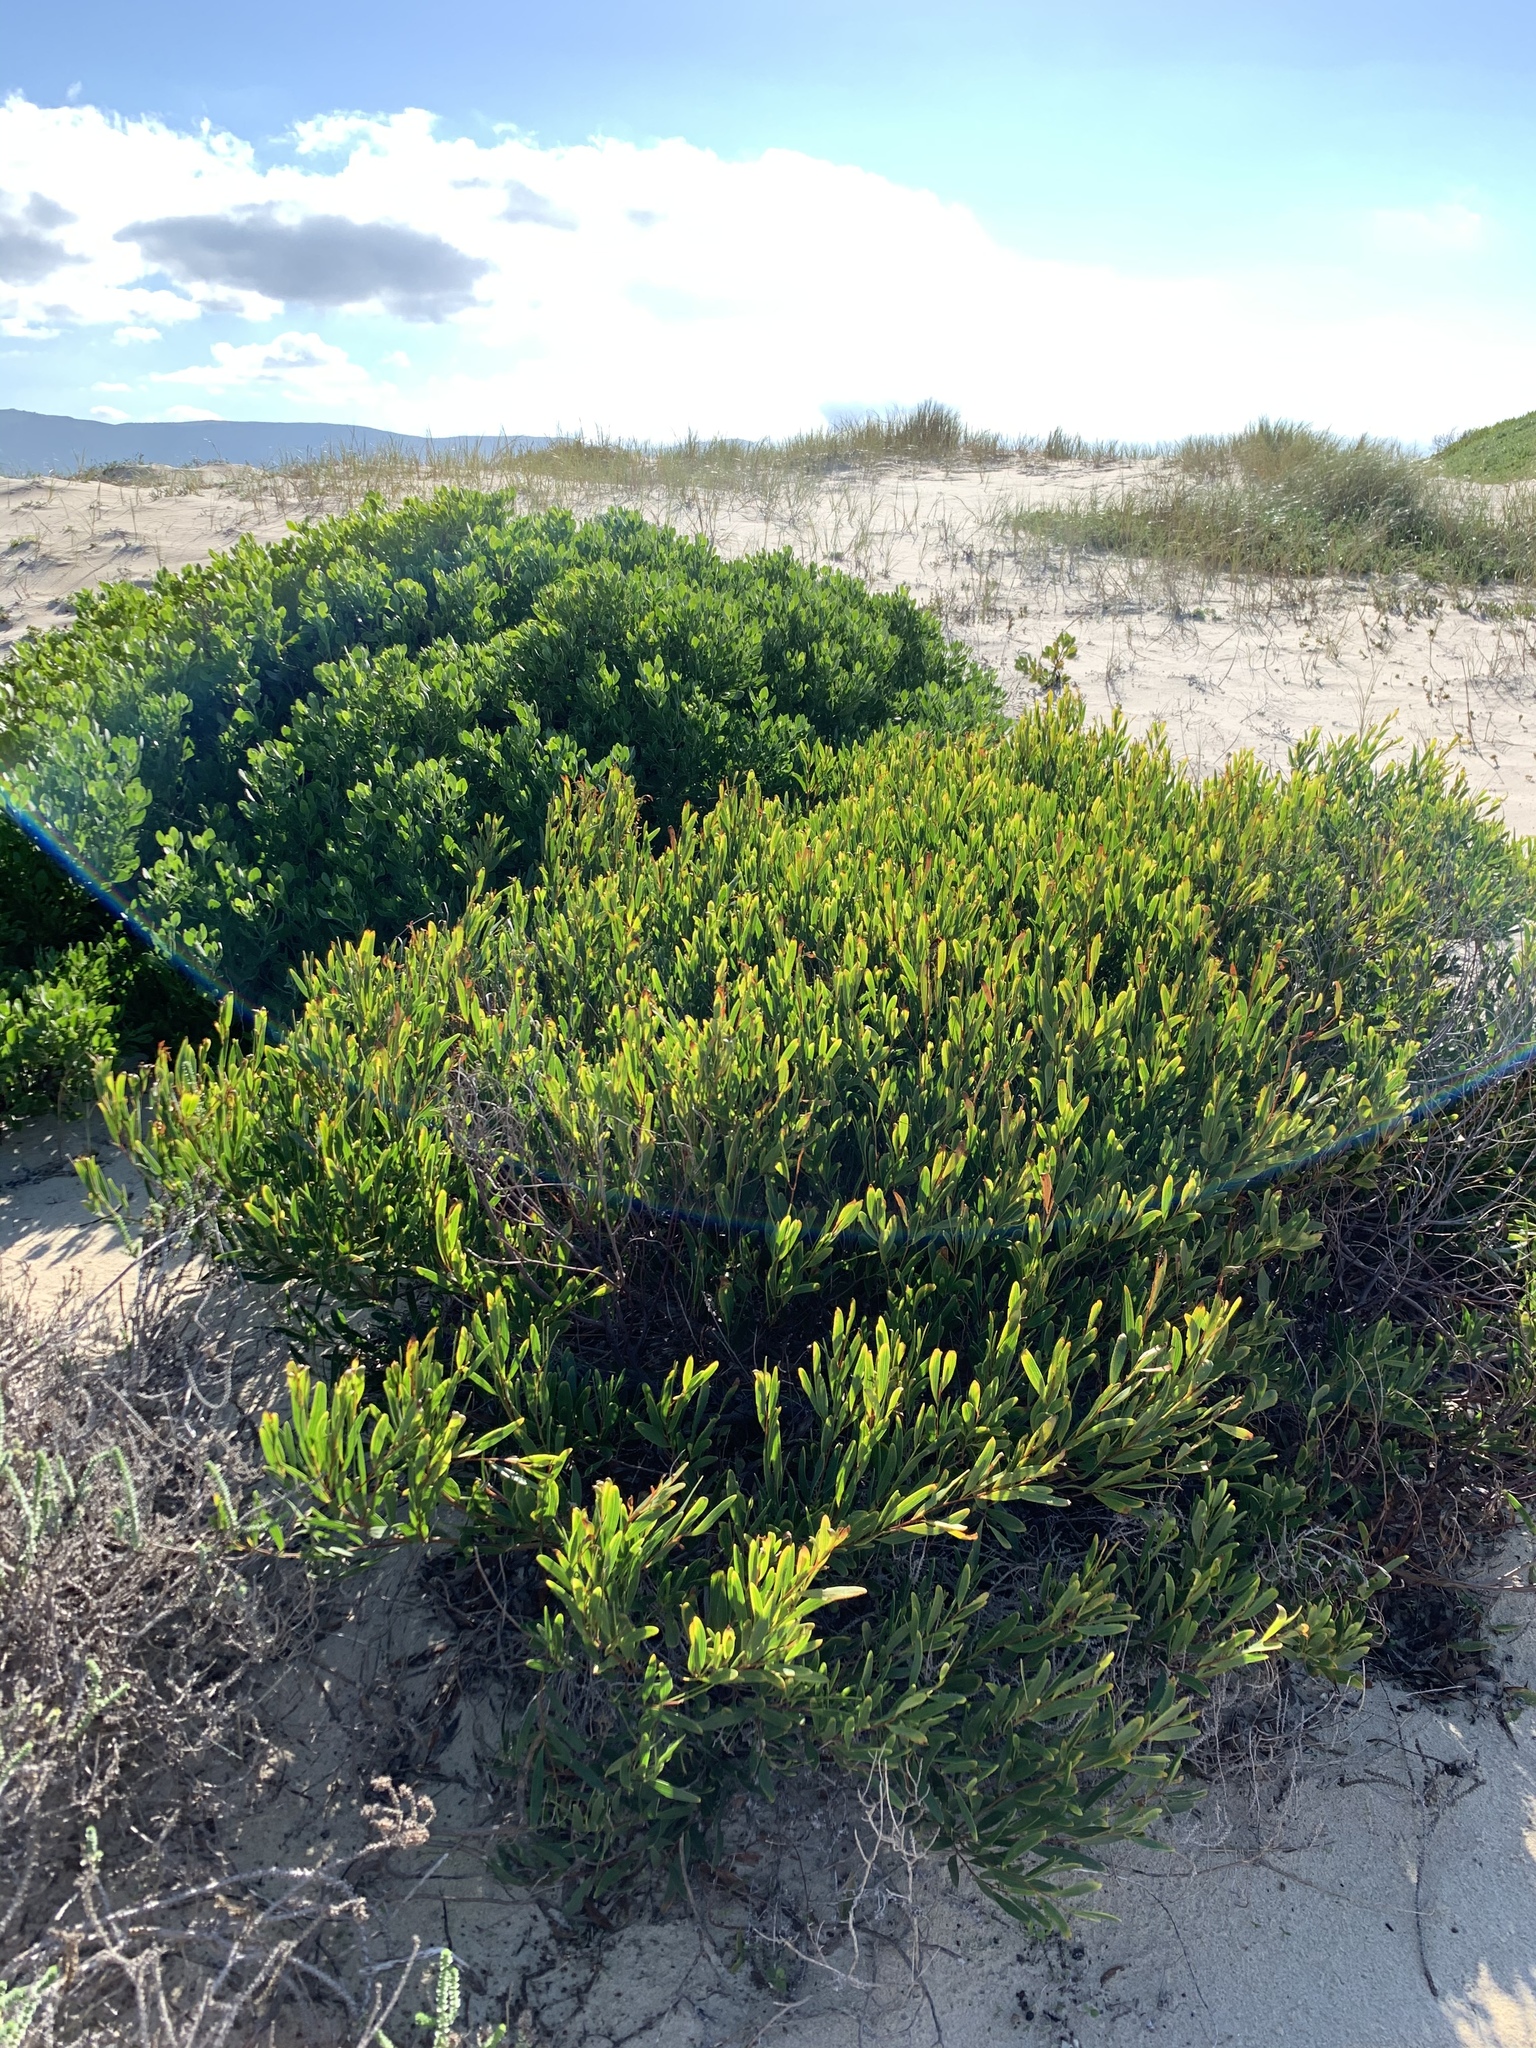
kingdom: Plantae
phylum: Tracheophyta
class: Magnoliopsida
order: Fabales
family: Fabaceae
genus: Acacia
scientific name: Acacia cyclops
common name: Coastal wattle
